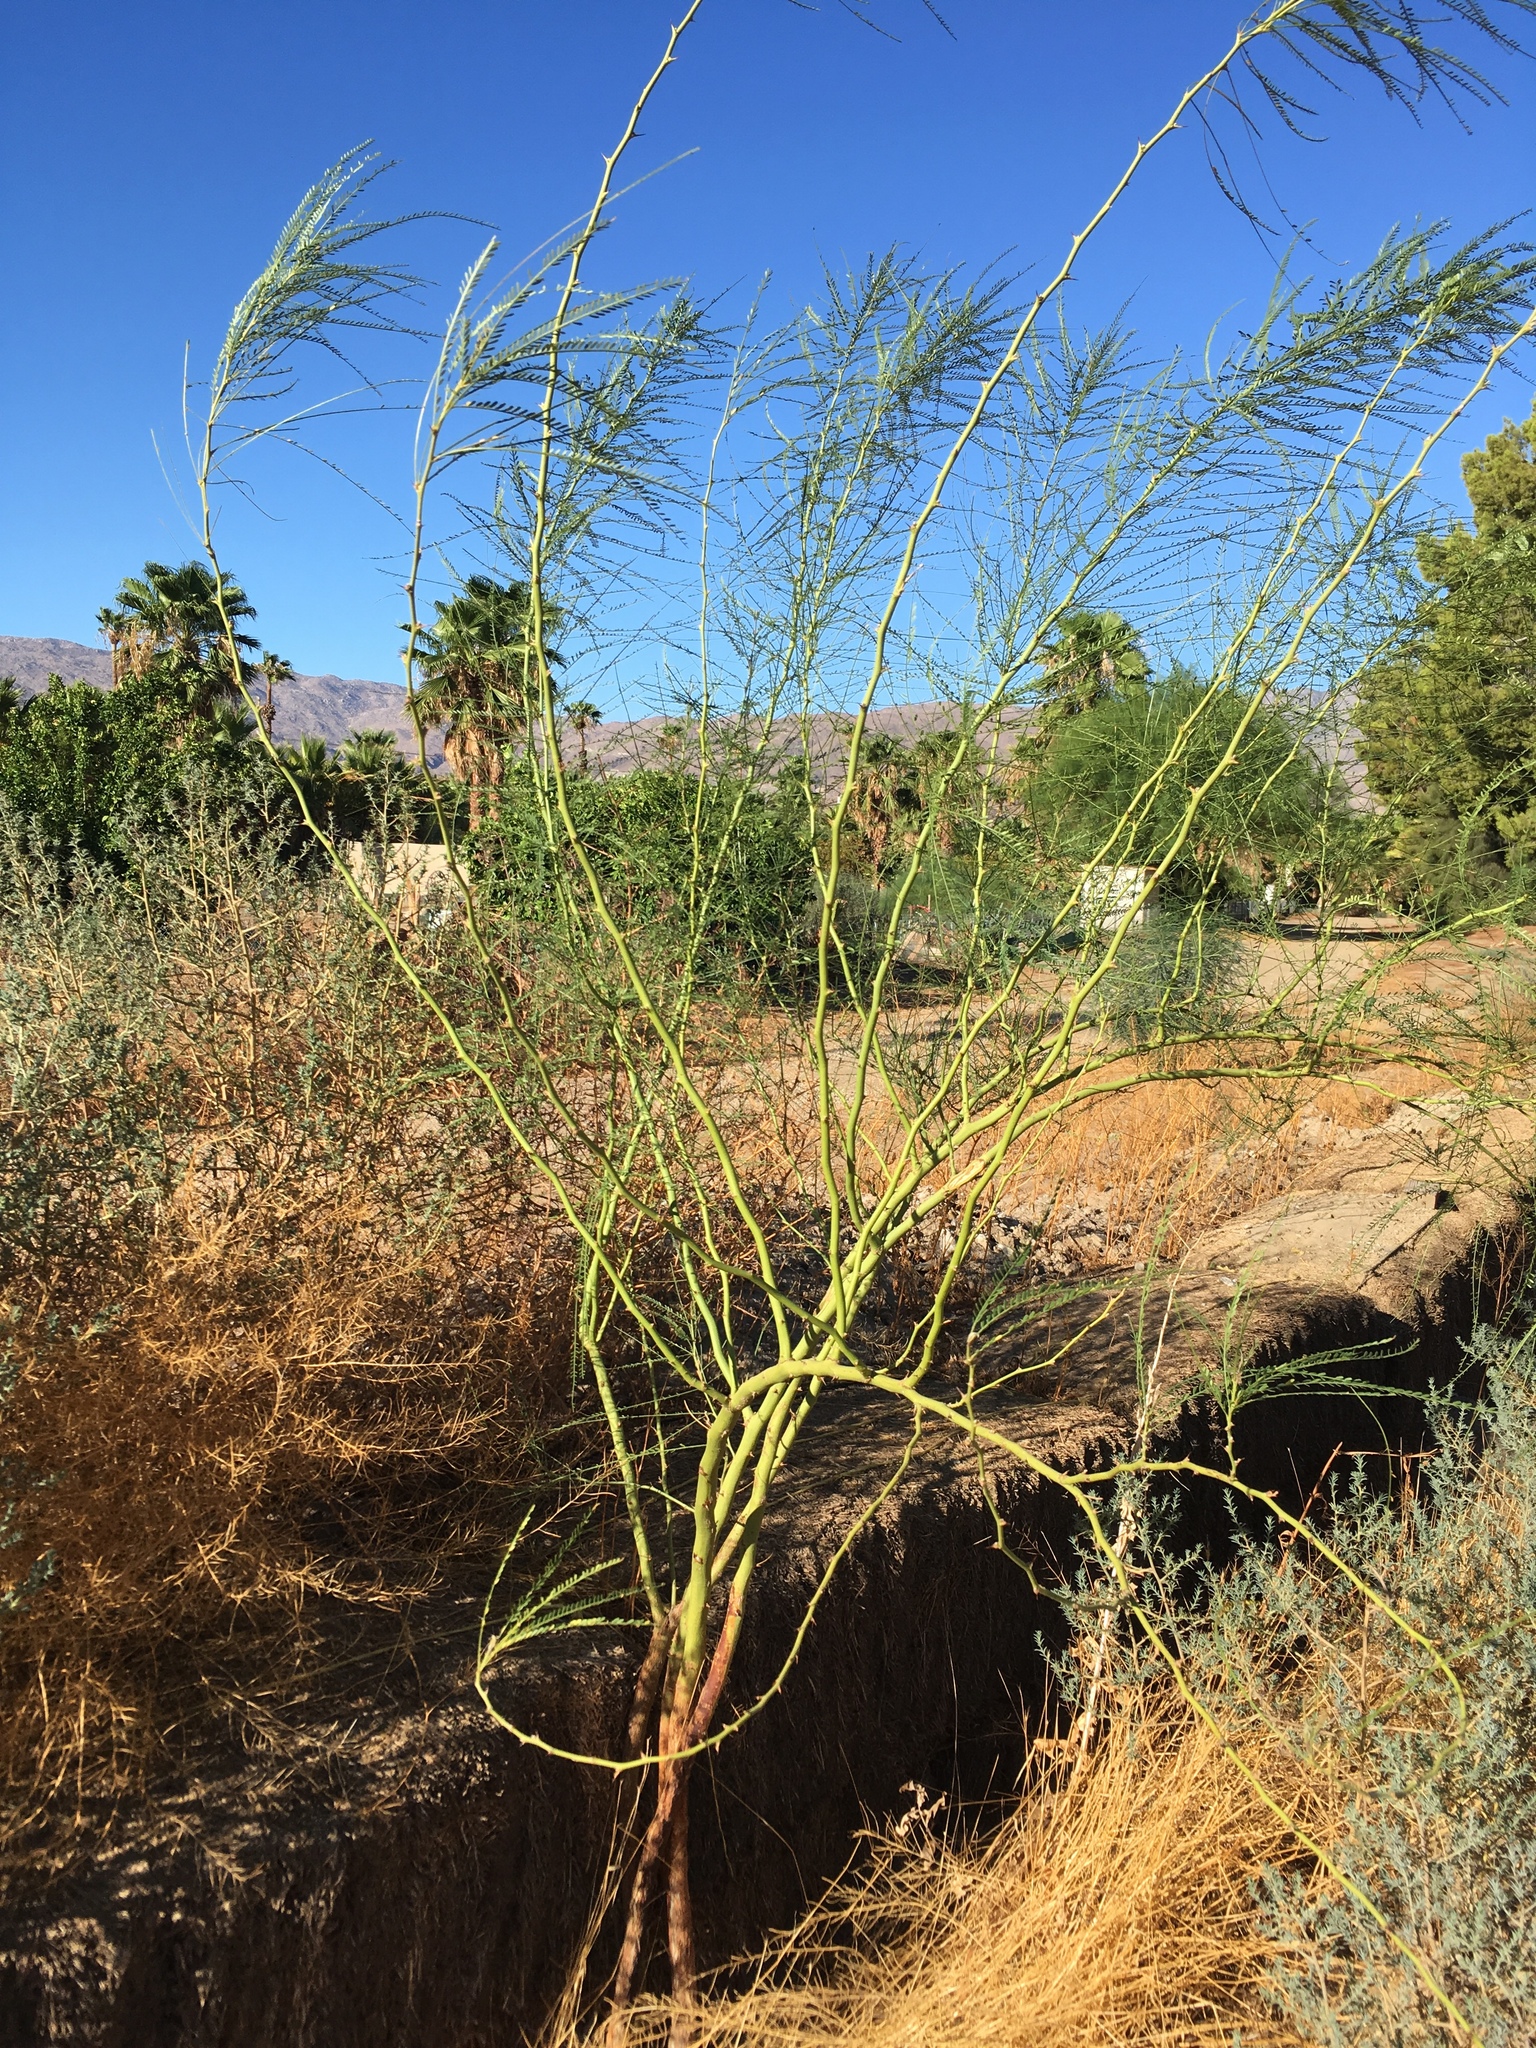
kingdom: Plantae
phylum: Tracheophyta
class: Magnoliopsida
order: Fabales
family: Fabaceae
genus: Parkinsonia
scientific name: Parkinsonia aculeata
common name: Jerusalem thorn
